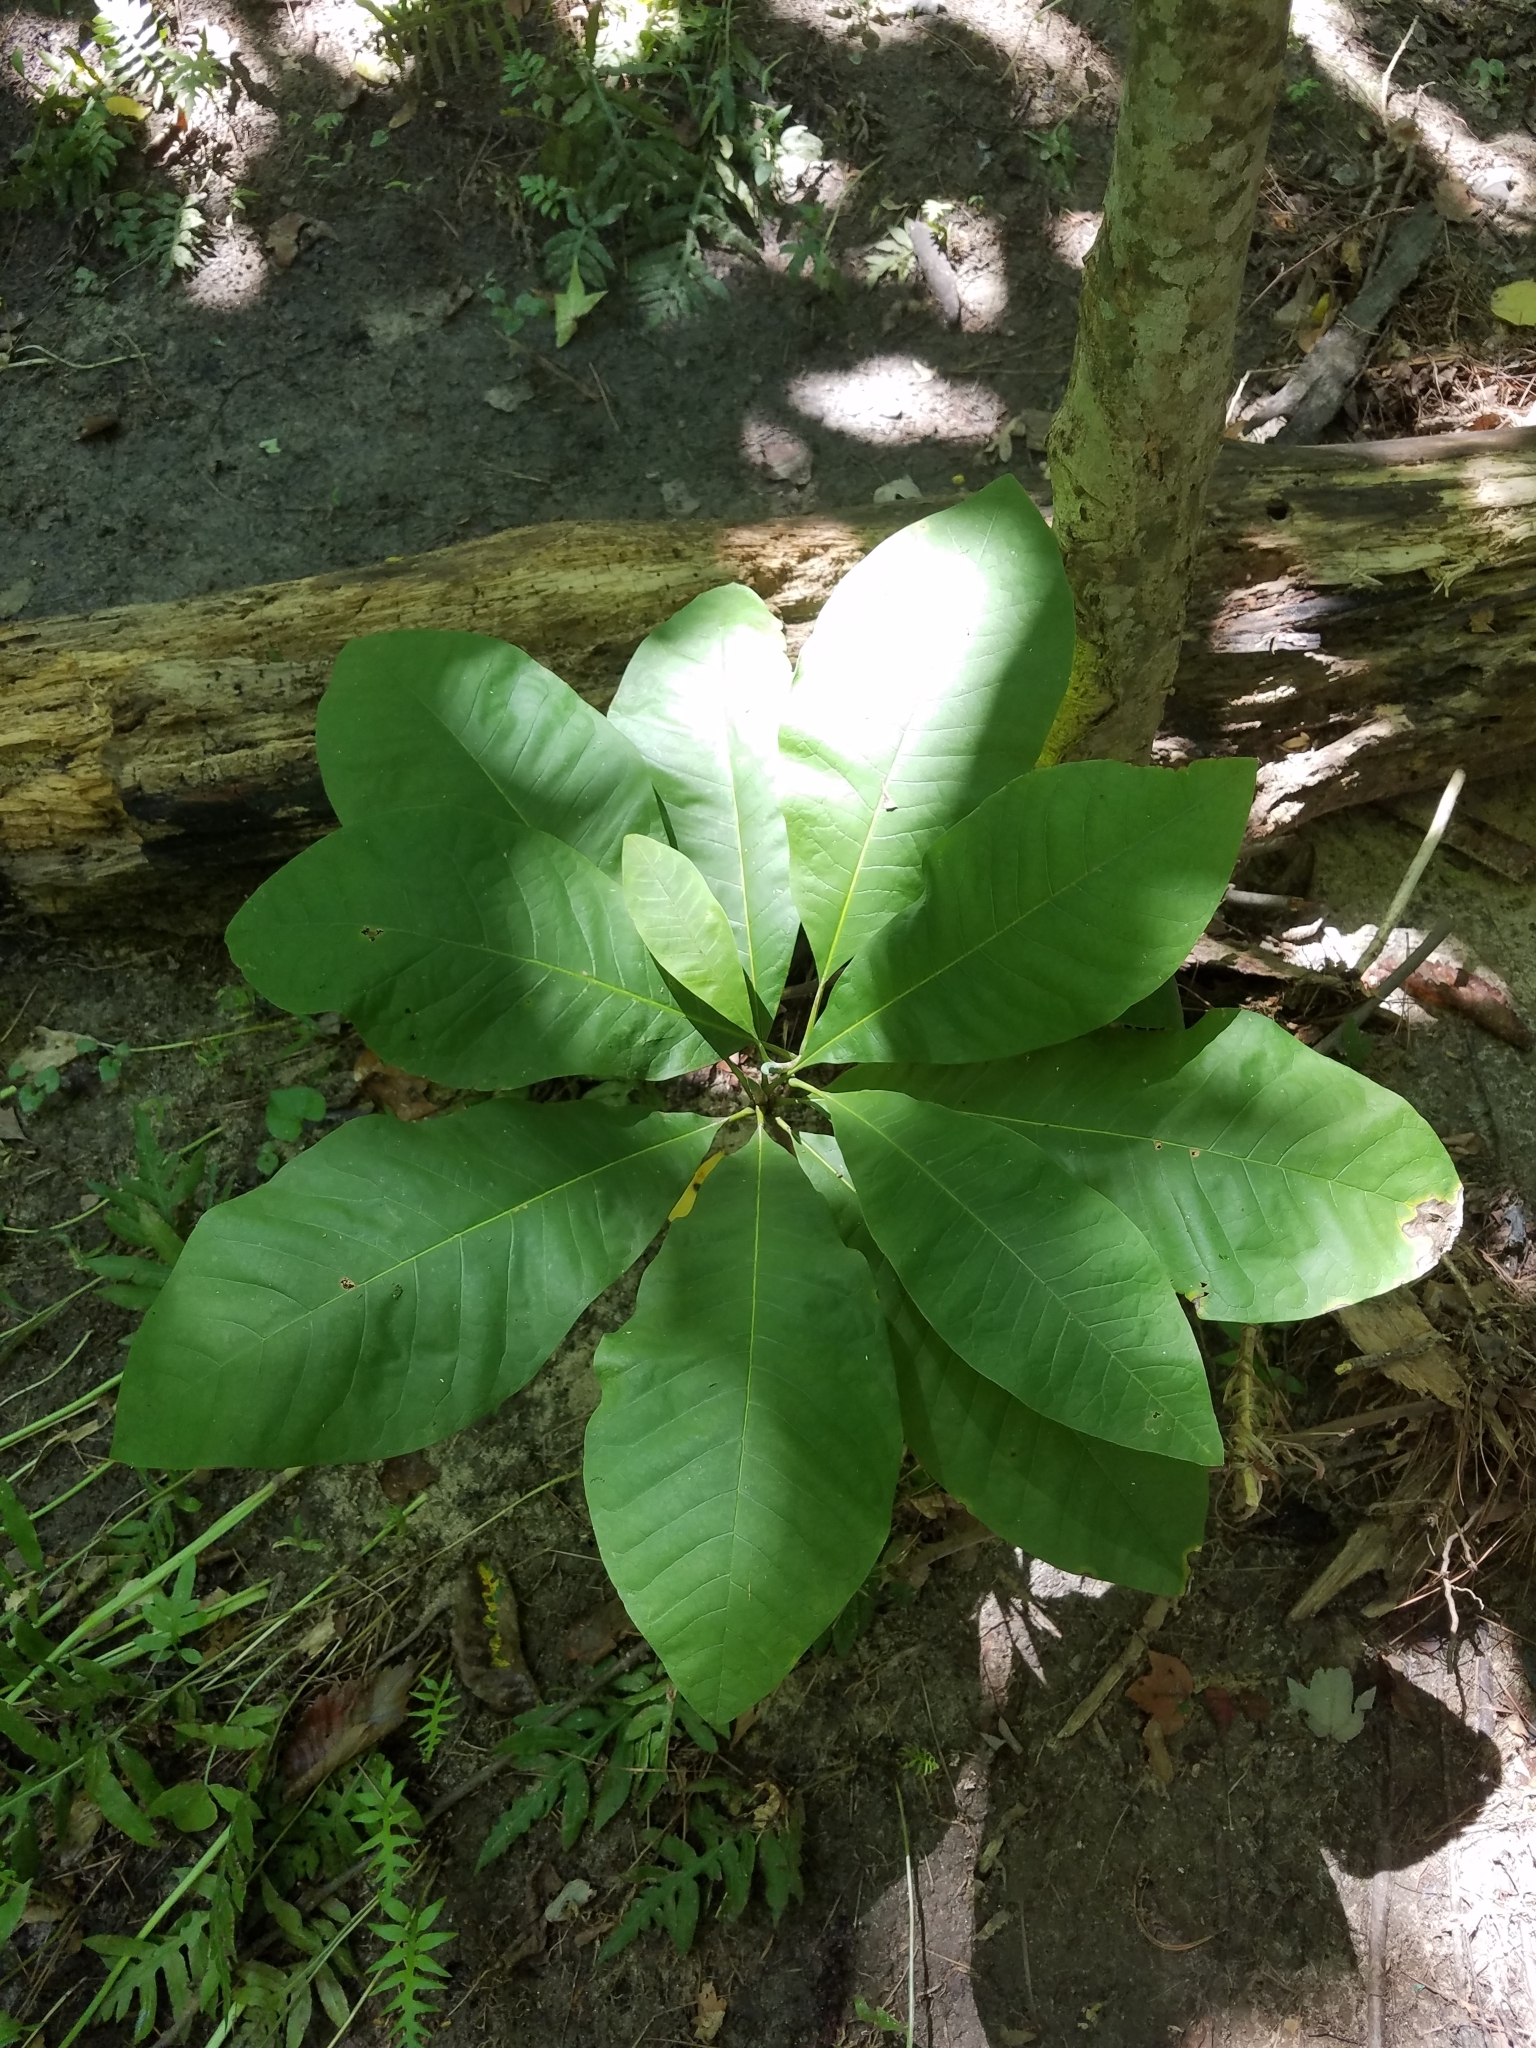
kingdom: Plantae
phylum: Tracheophyta
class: Magnoliopsida
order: Magnoliales
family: Magnoliaceae
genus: Magnolia
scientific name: Magnolia tripetala
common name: Umbrella magnolia
